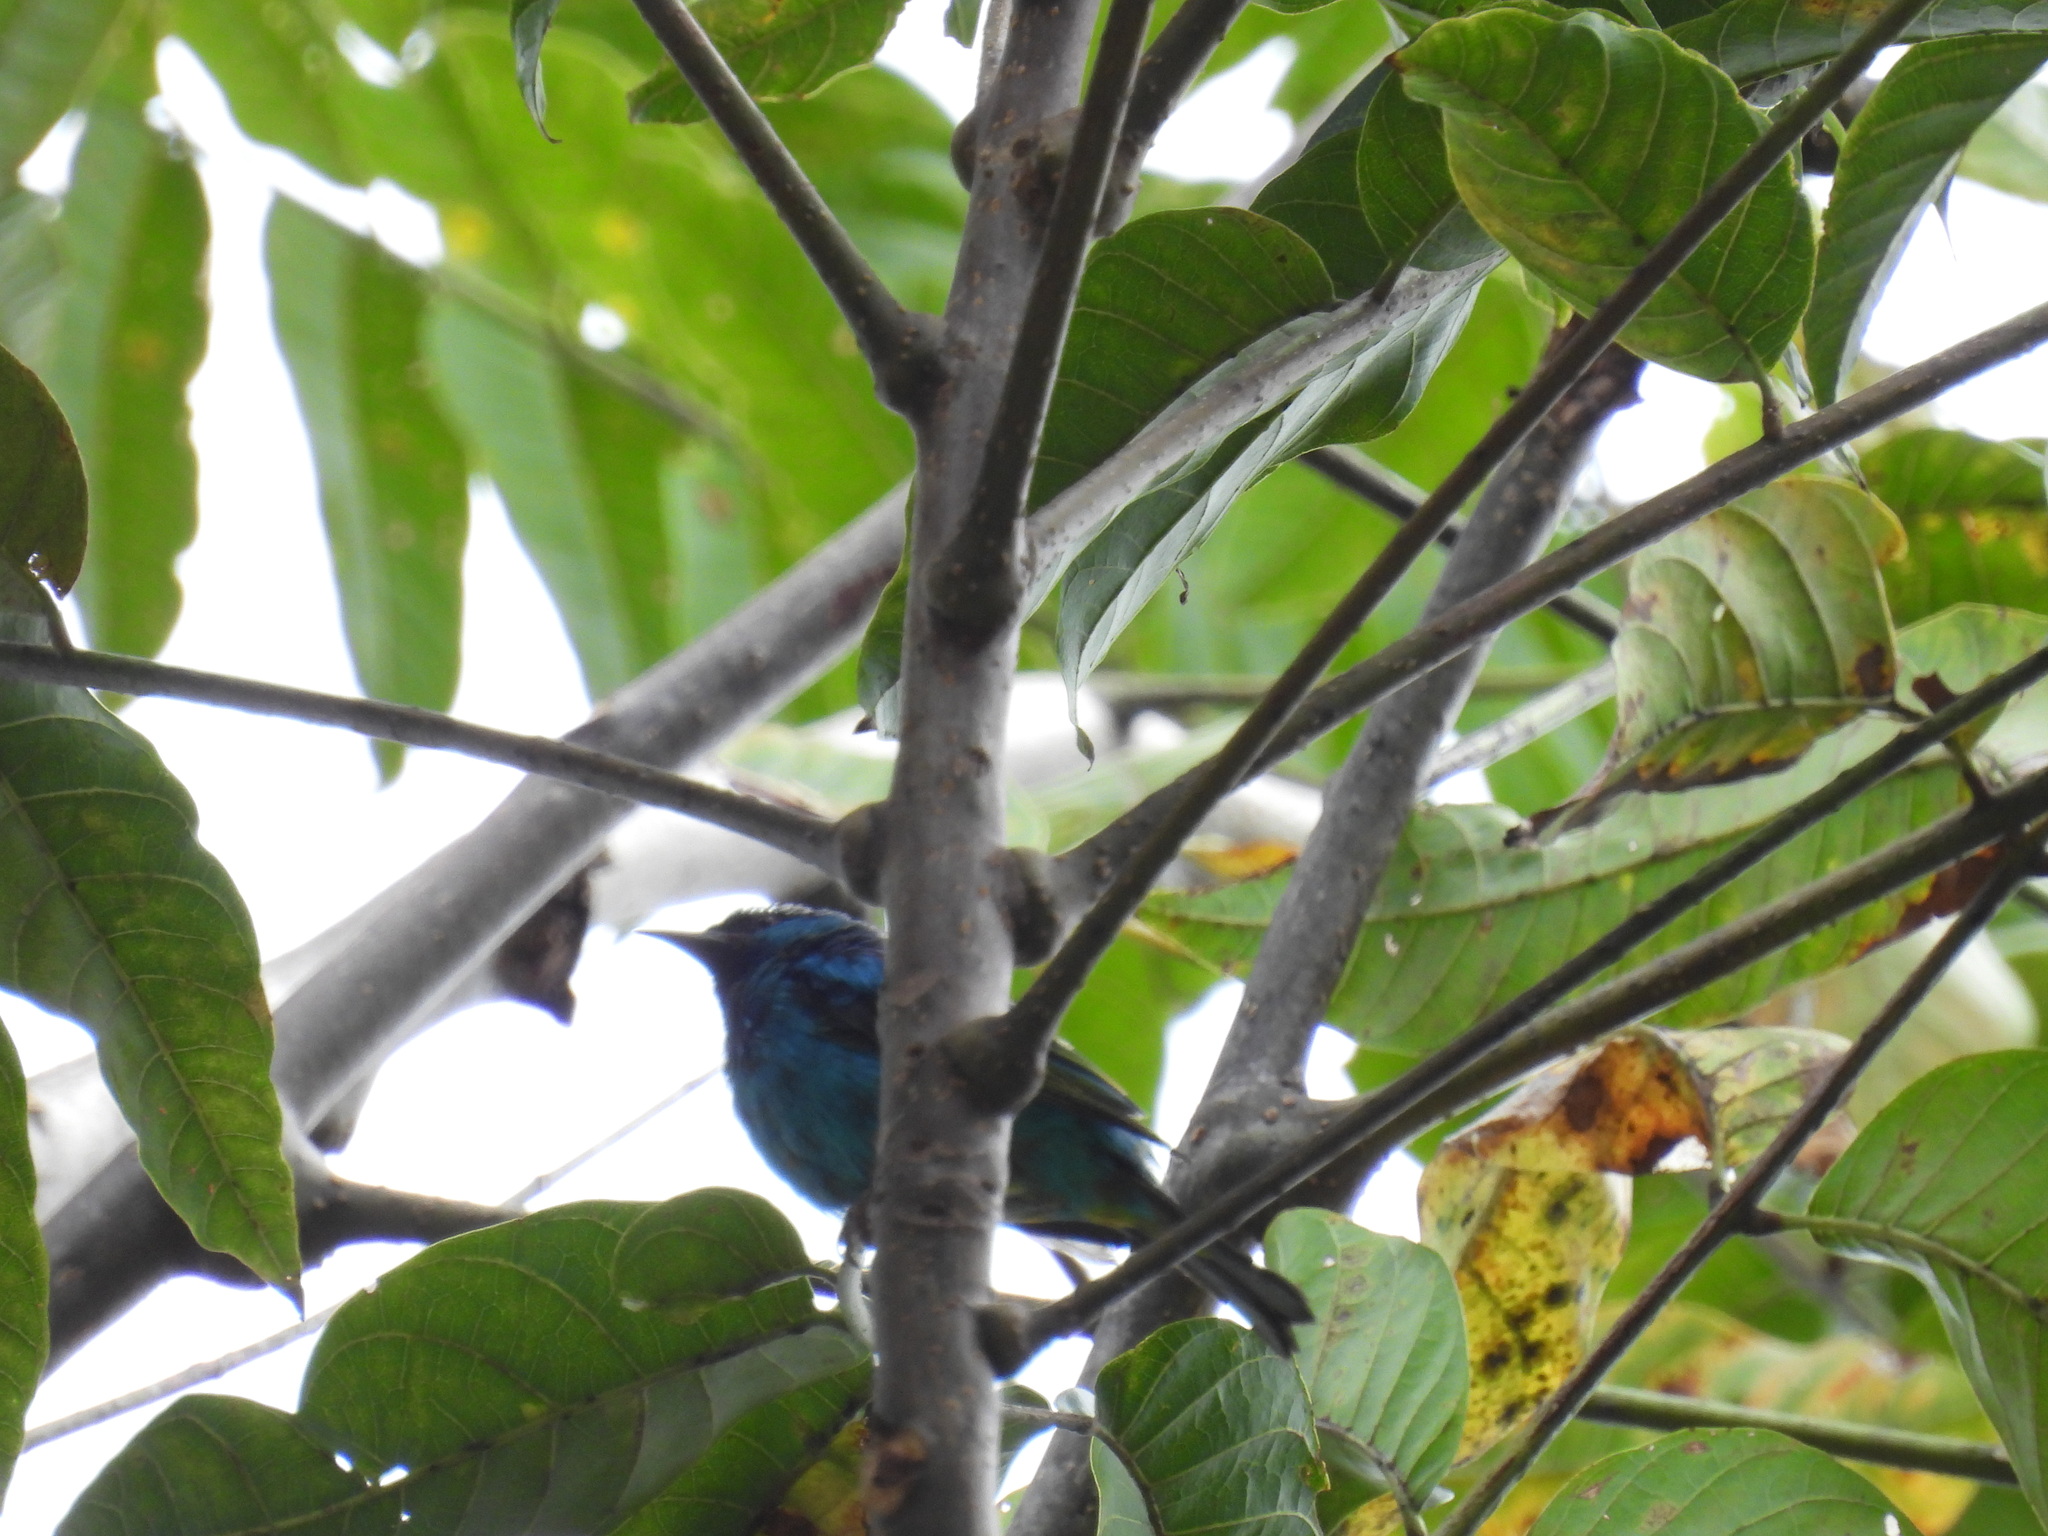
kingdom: Animalia
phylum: Chordata
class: Aves
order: Passeriformes
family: Thraupidae
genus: Dacnis
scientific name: Dacnis cayana
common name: Blue dacnis
